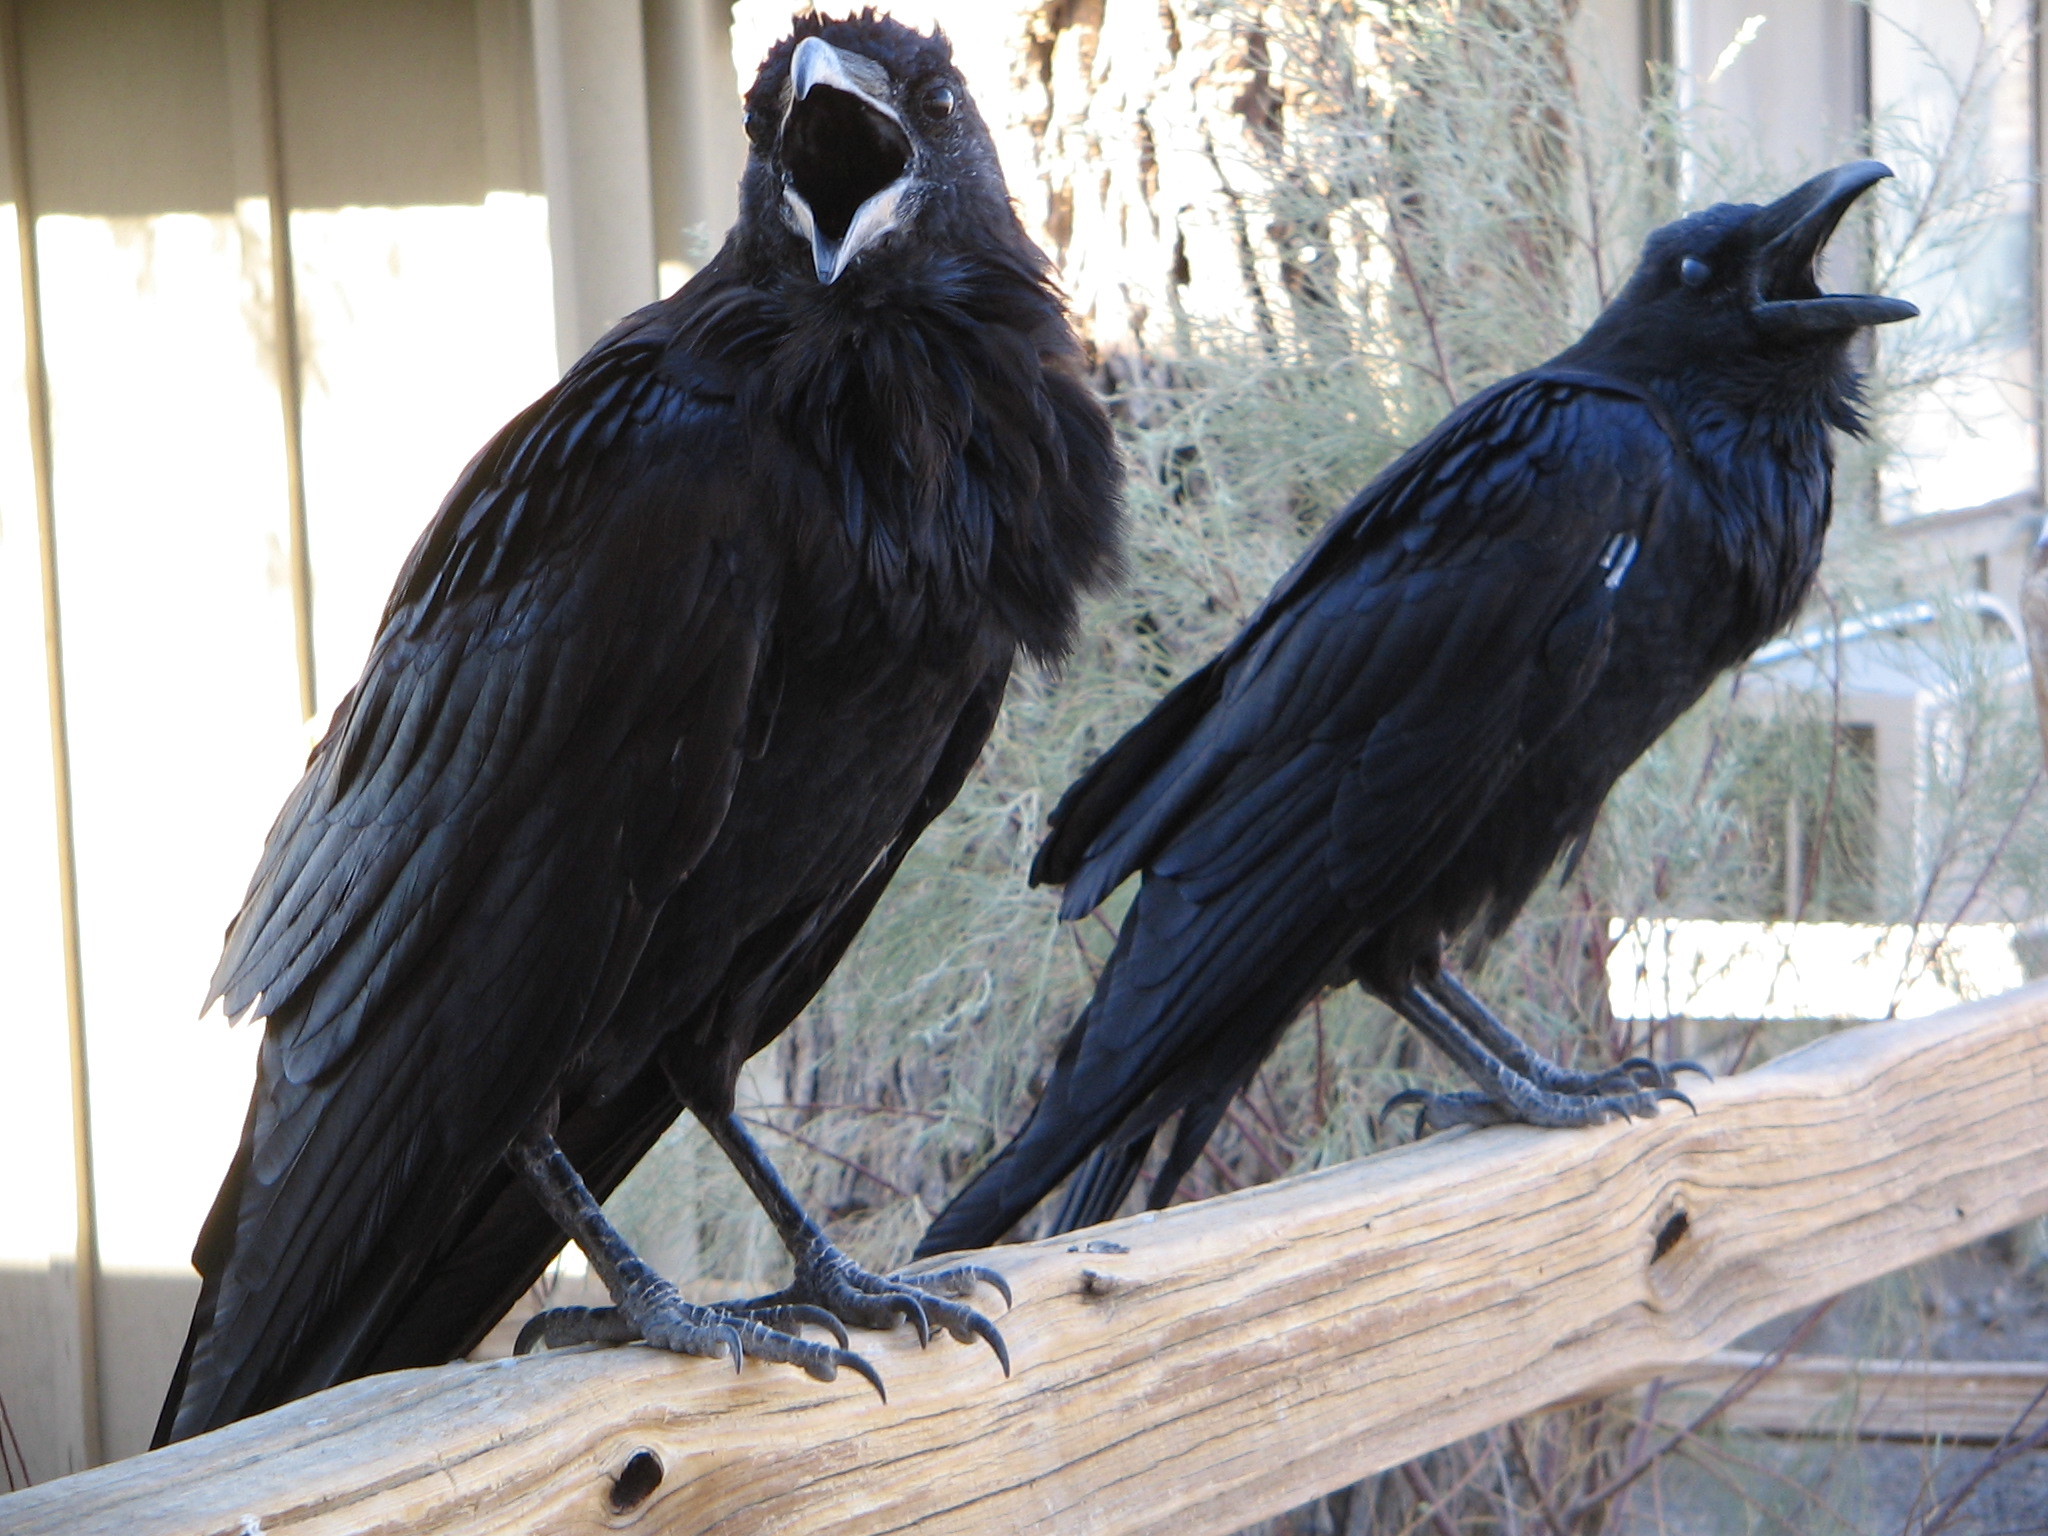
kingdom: Animalia
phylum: Chordata
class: Aves
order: Passeriformes
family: Corvidae
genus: Corvus
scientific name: Corvus corax
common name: Common raven
